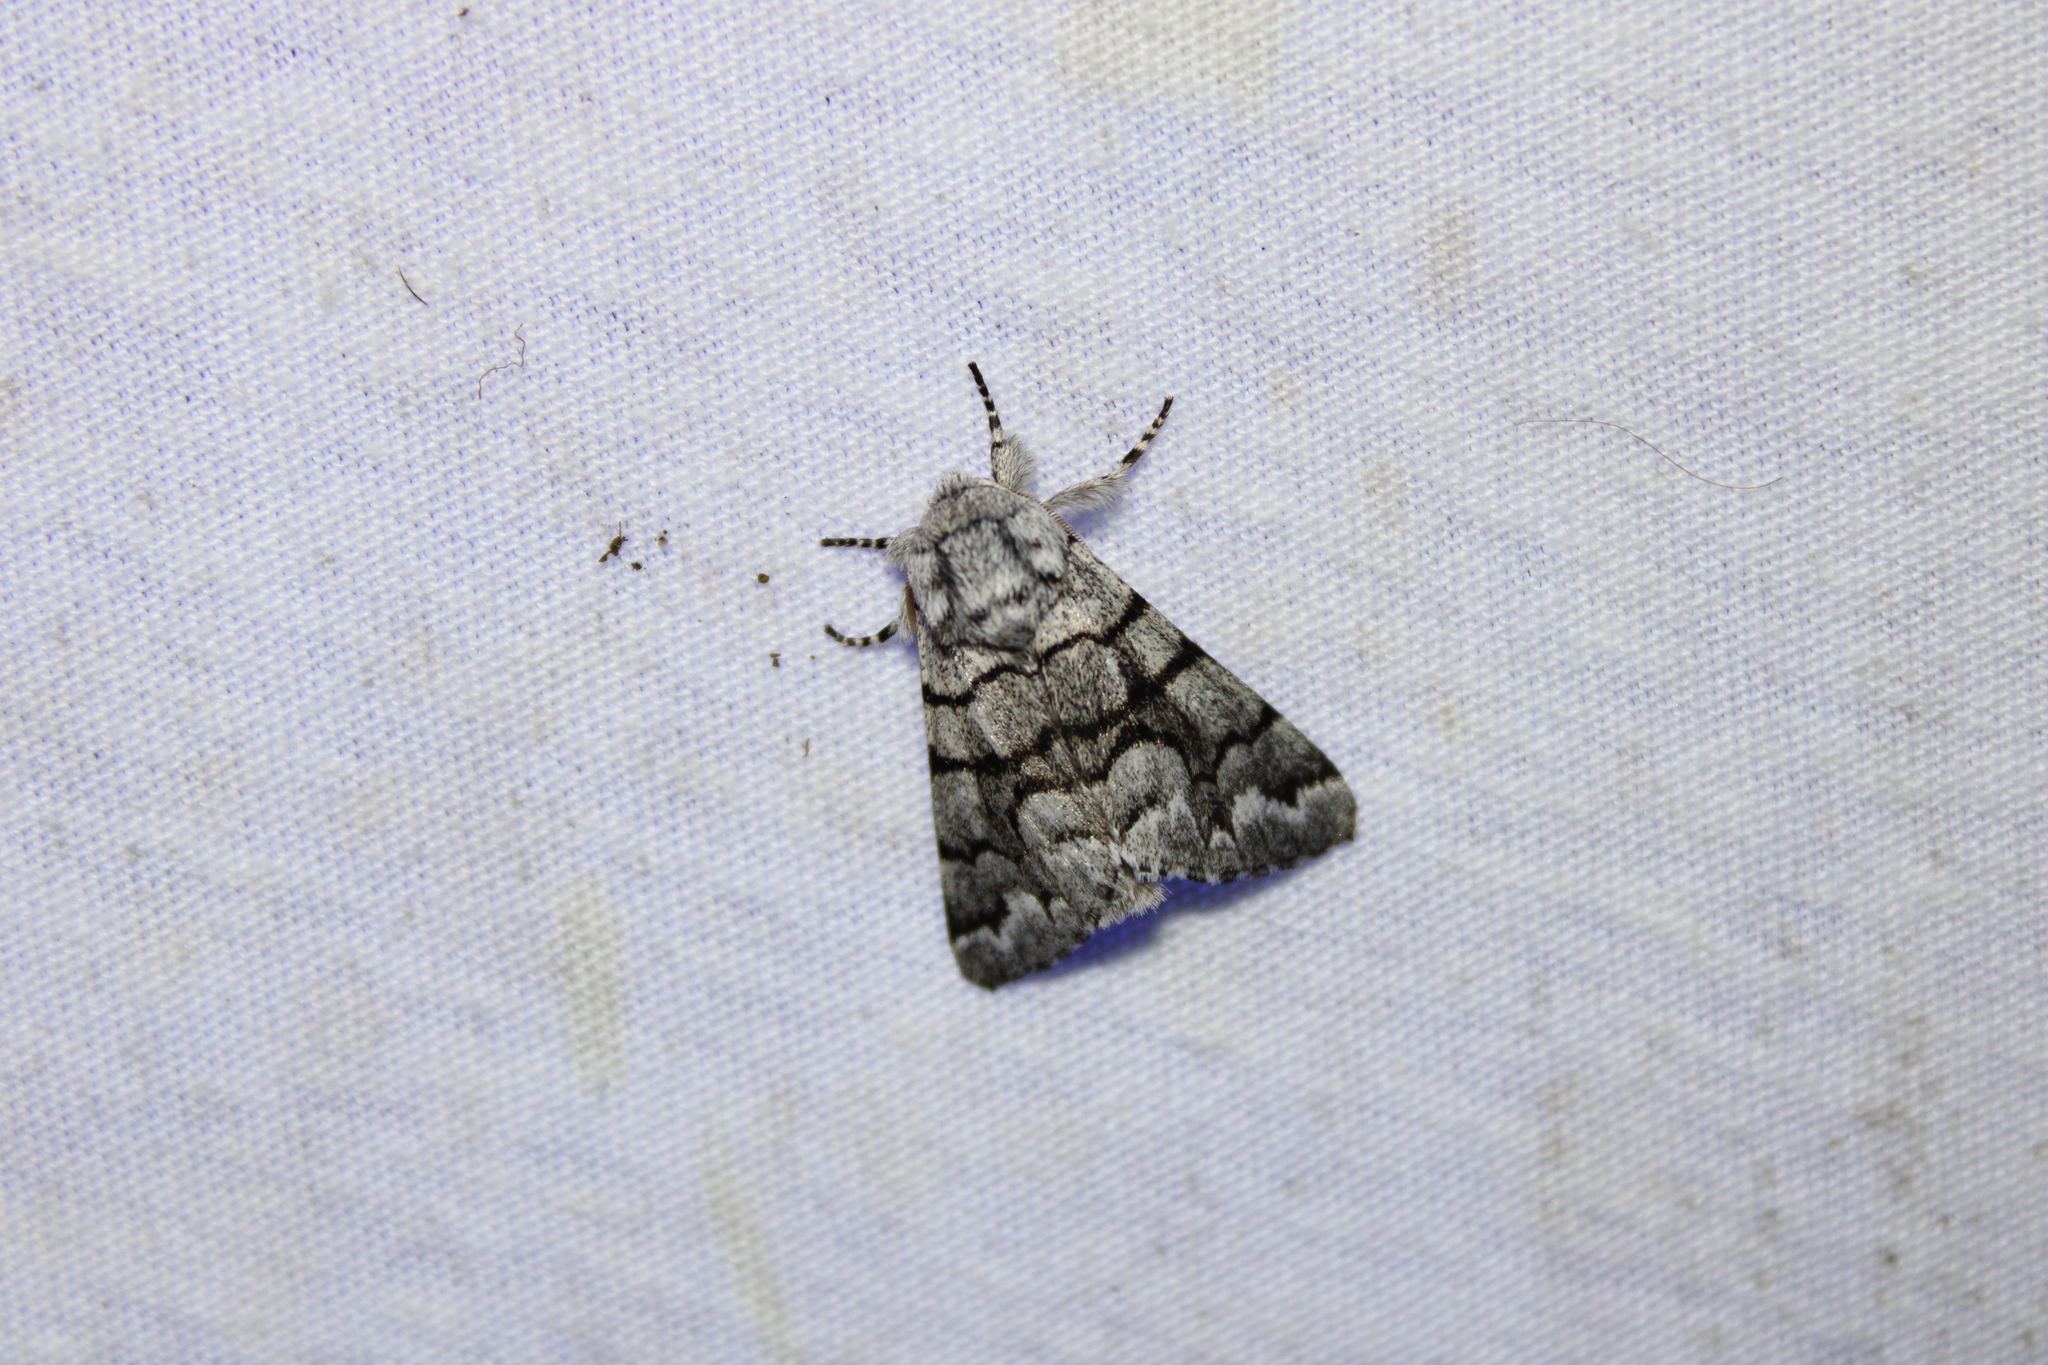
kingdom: Animalia
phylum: Arthropoda
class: Insecta
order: Lepidoptera
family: Noctuidae
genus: Panthea
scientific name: Panthea furcilla
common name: Eastern panthea moth
